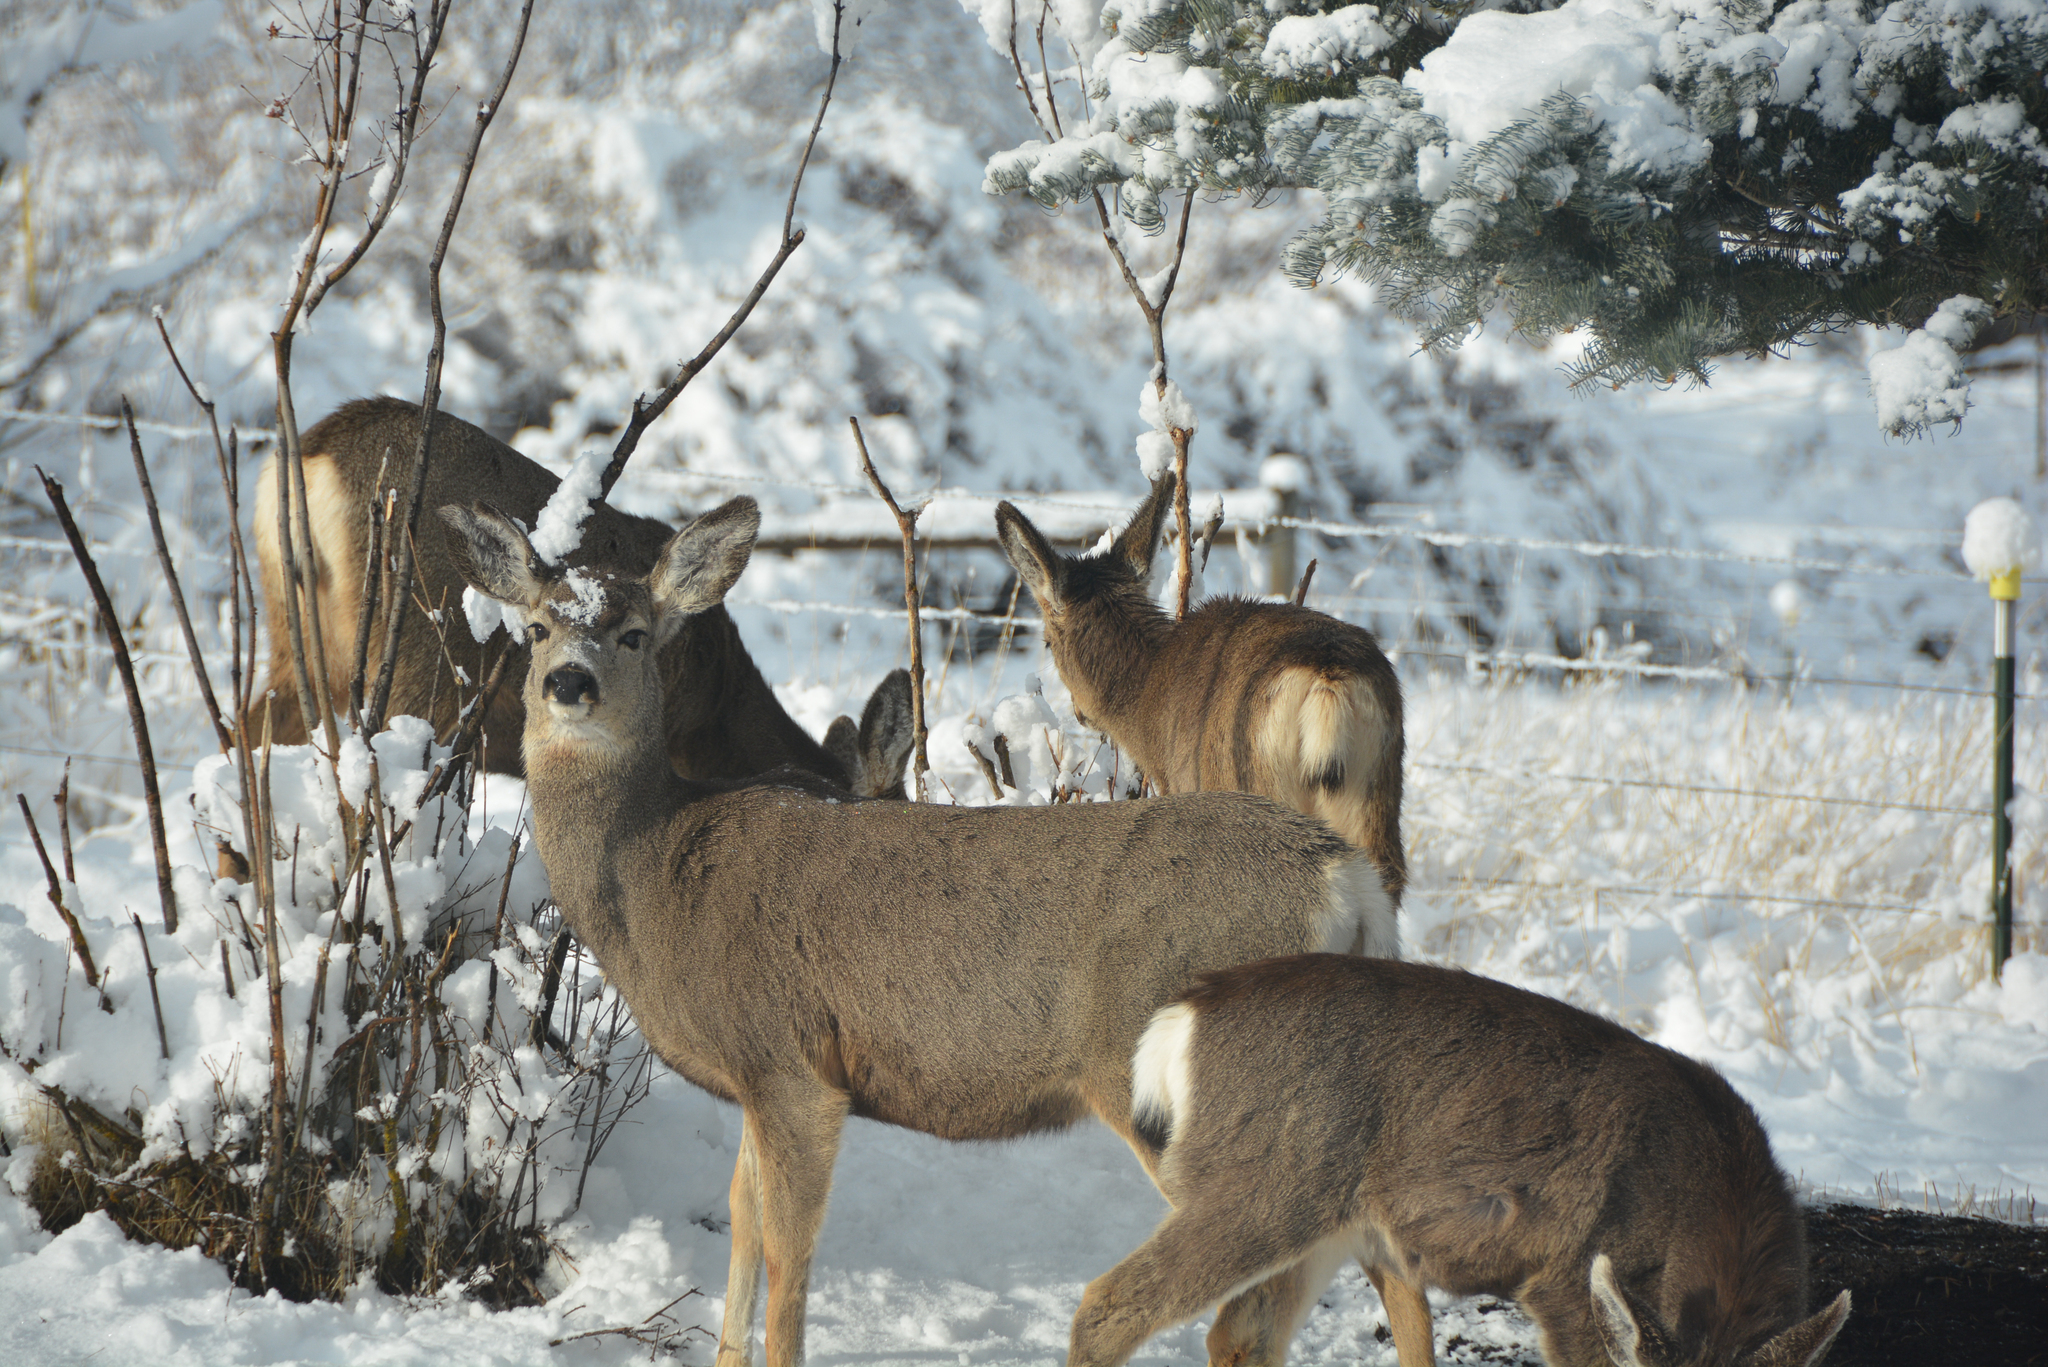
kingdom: Animalia
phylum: Chordata
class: Mammalia
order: Artiodactyla
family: Cervidae
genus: Odocoileus
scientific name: Odocoileus hemionus
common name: Mule deer
